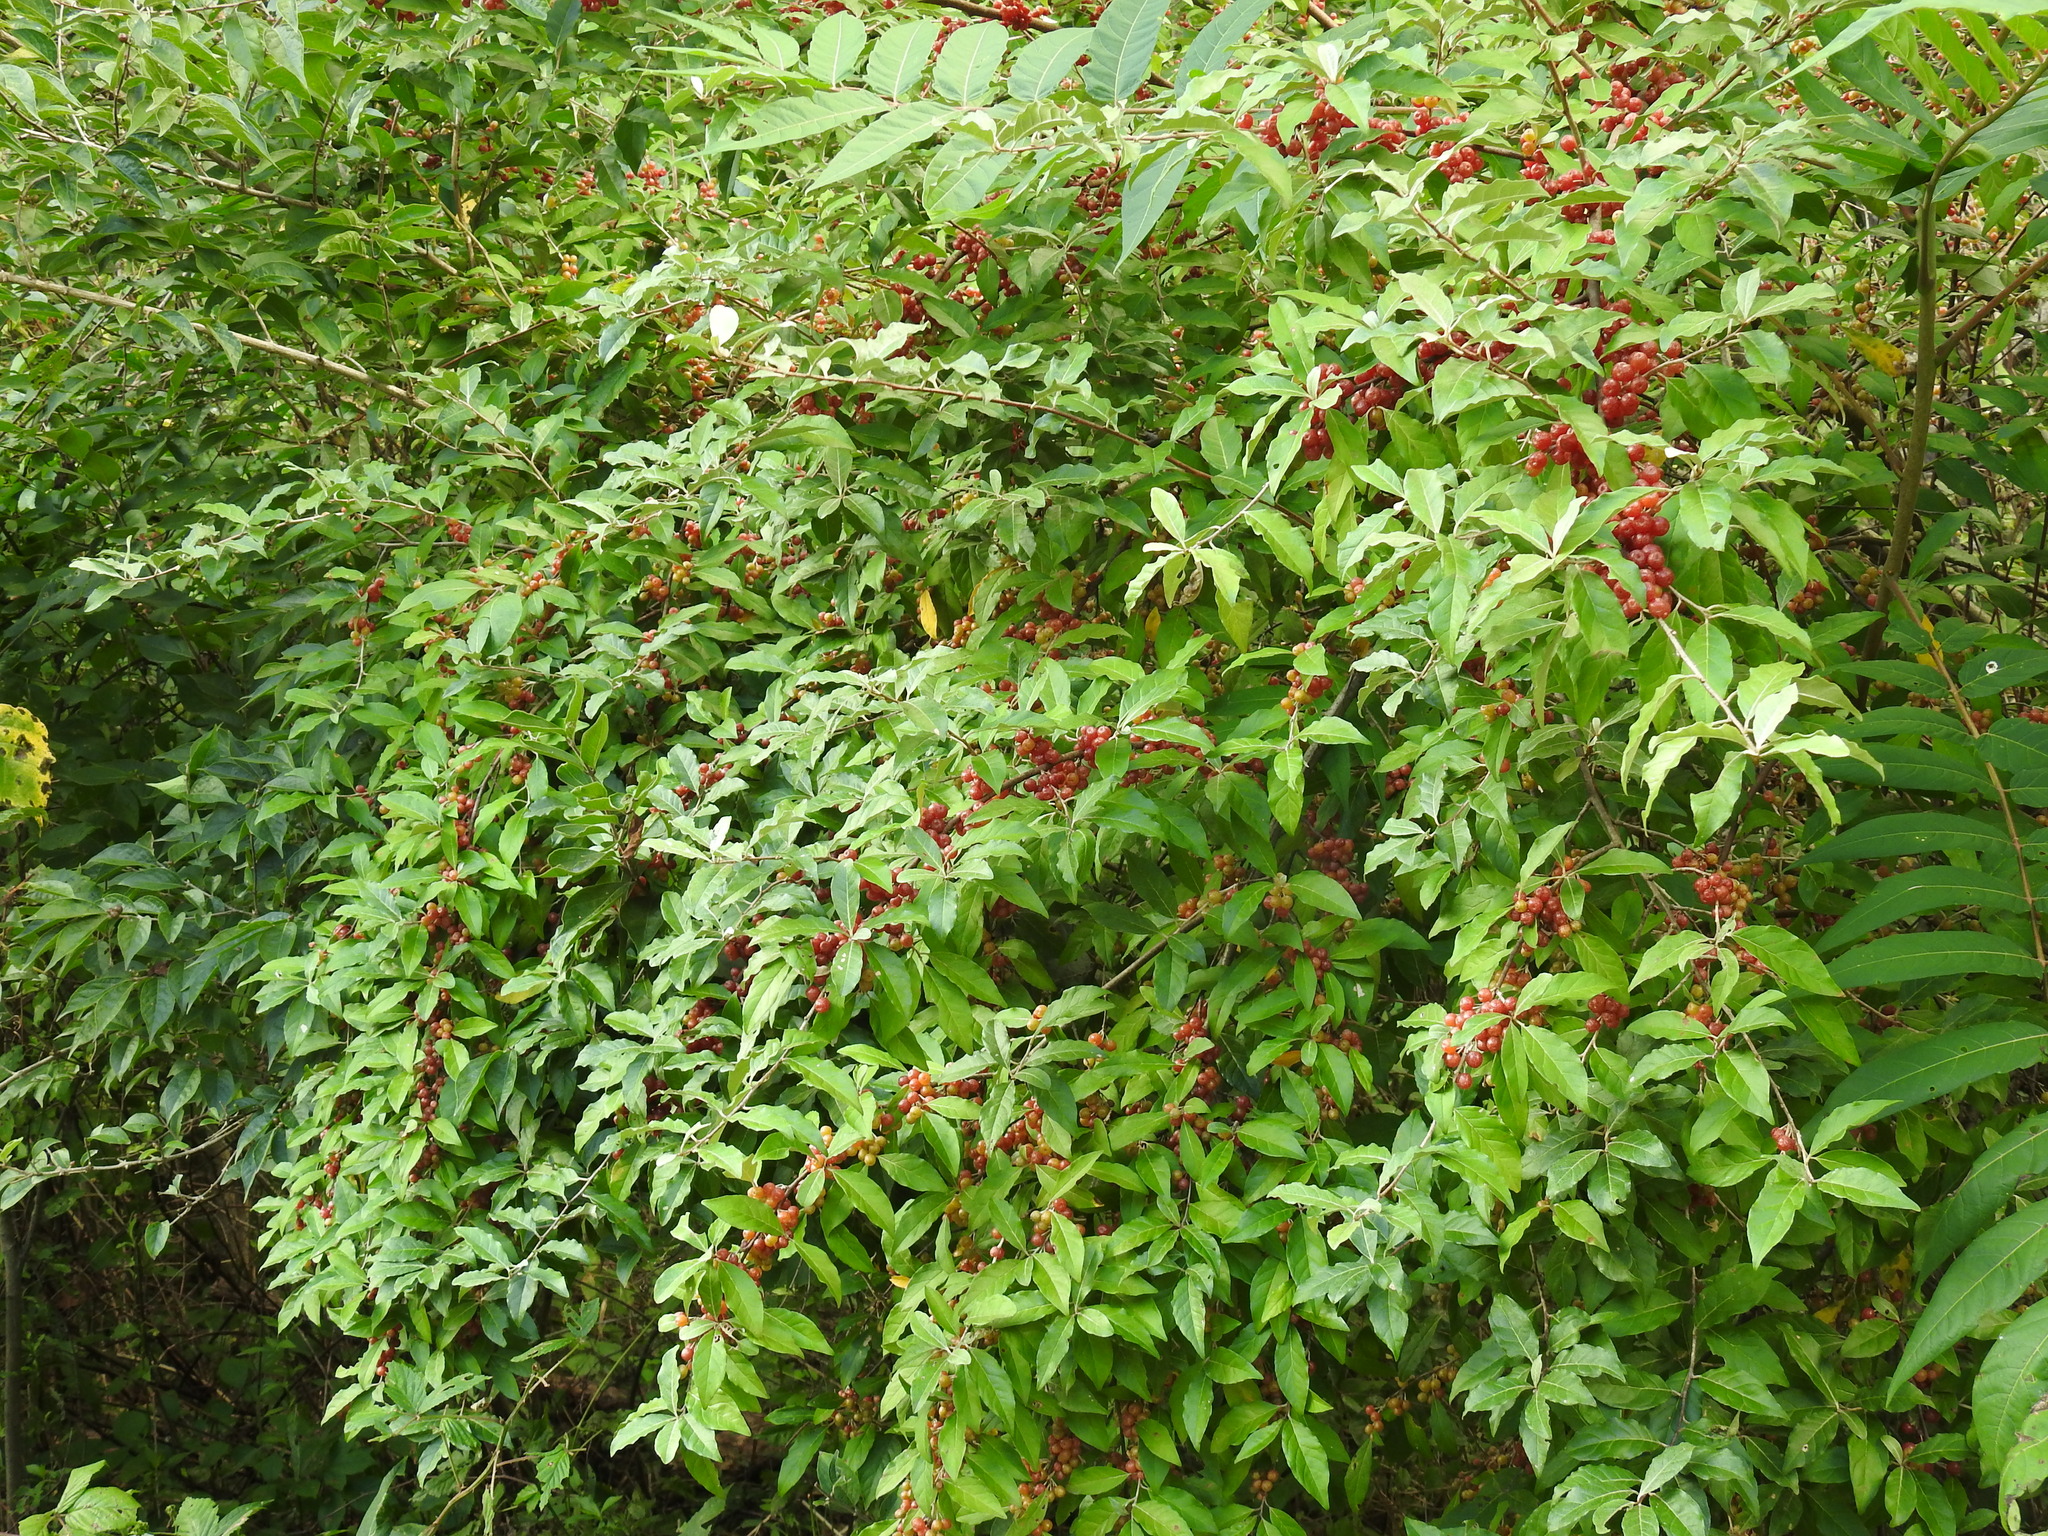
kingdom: Plantae
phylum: Tracheophyta
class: Magnoliopsida
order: Rosales
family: Elaeagnaceae
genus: Elaeagnus
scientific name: Elaeagnus umbellata
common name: Autumn olive
